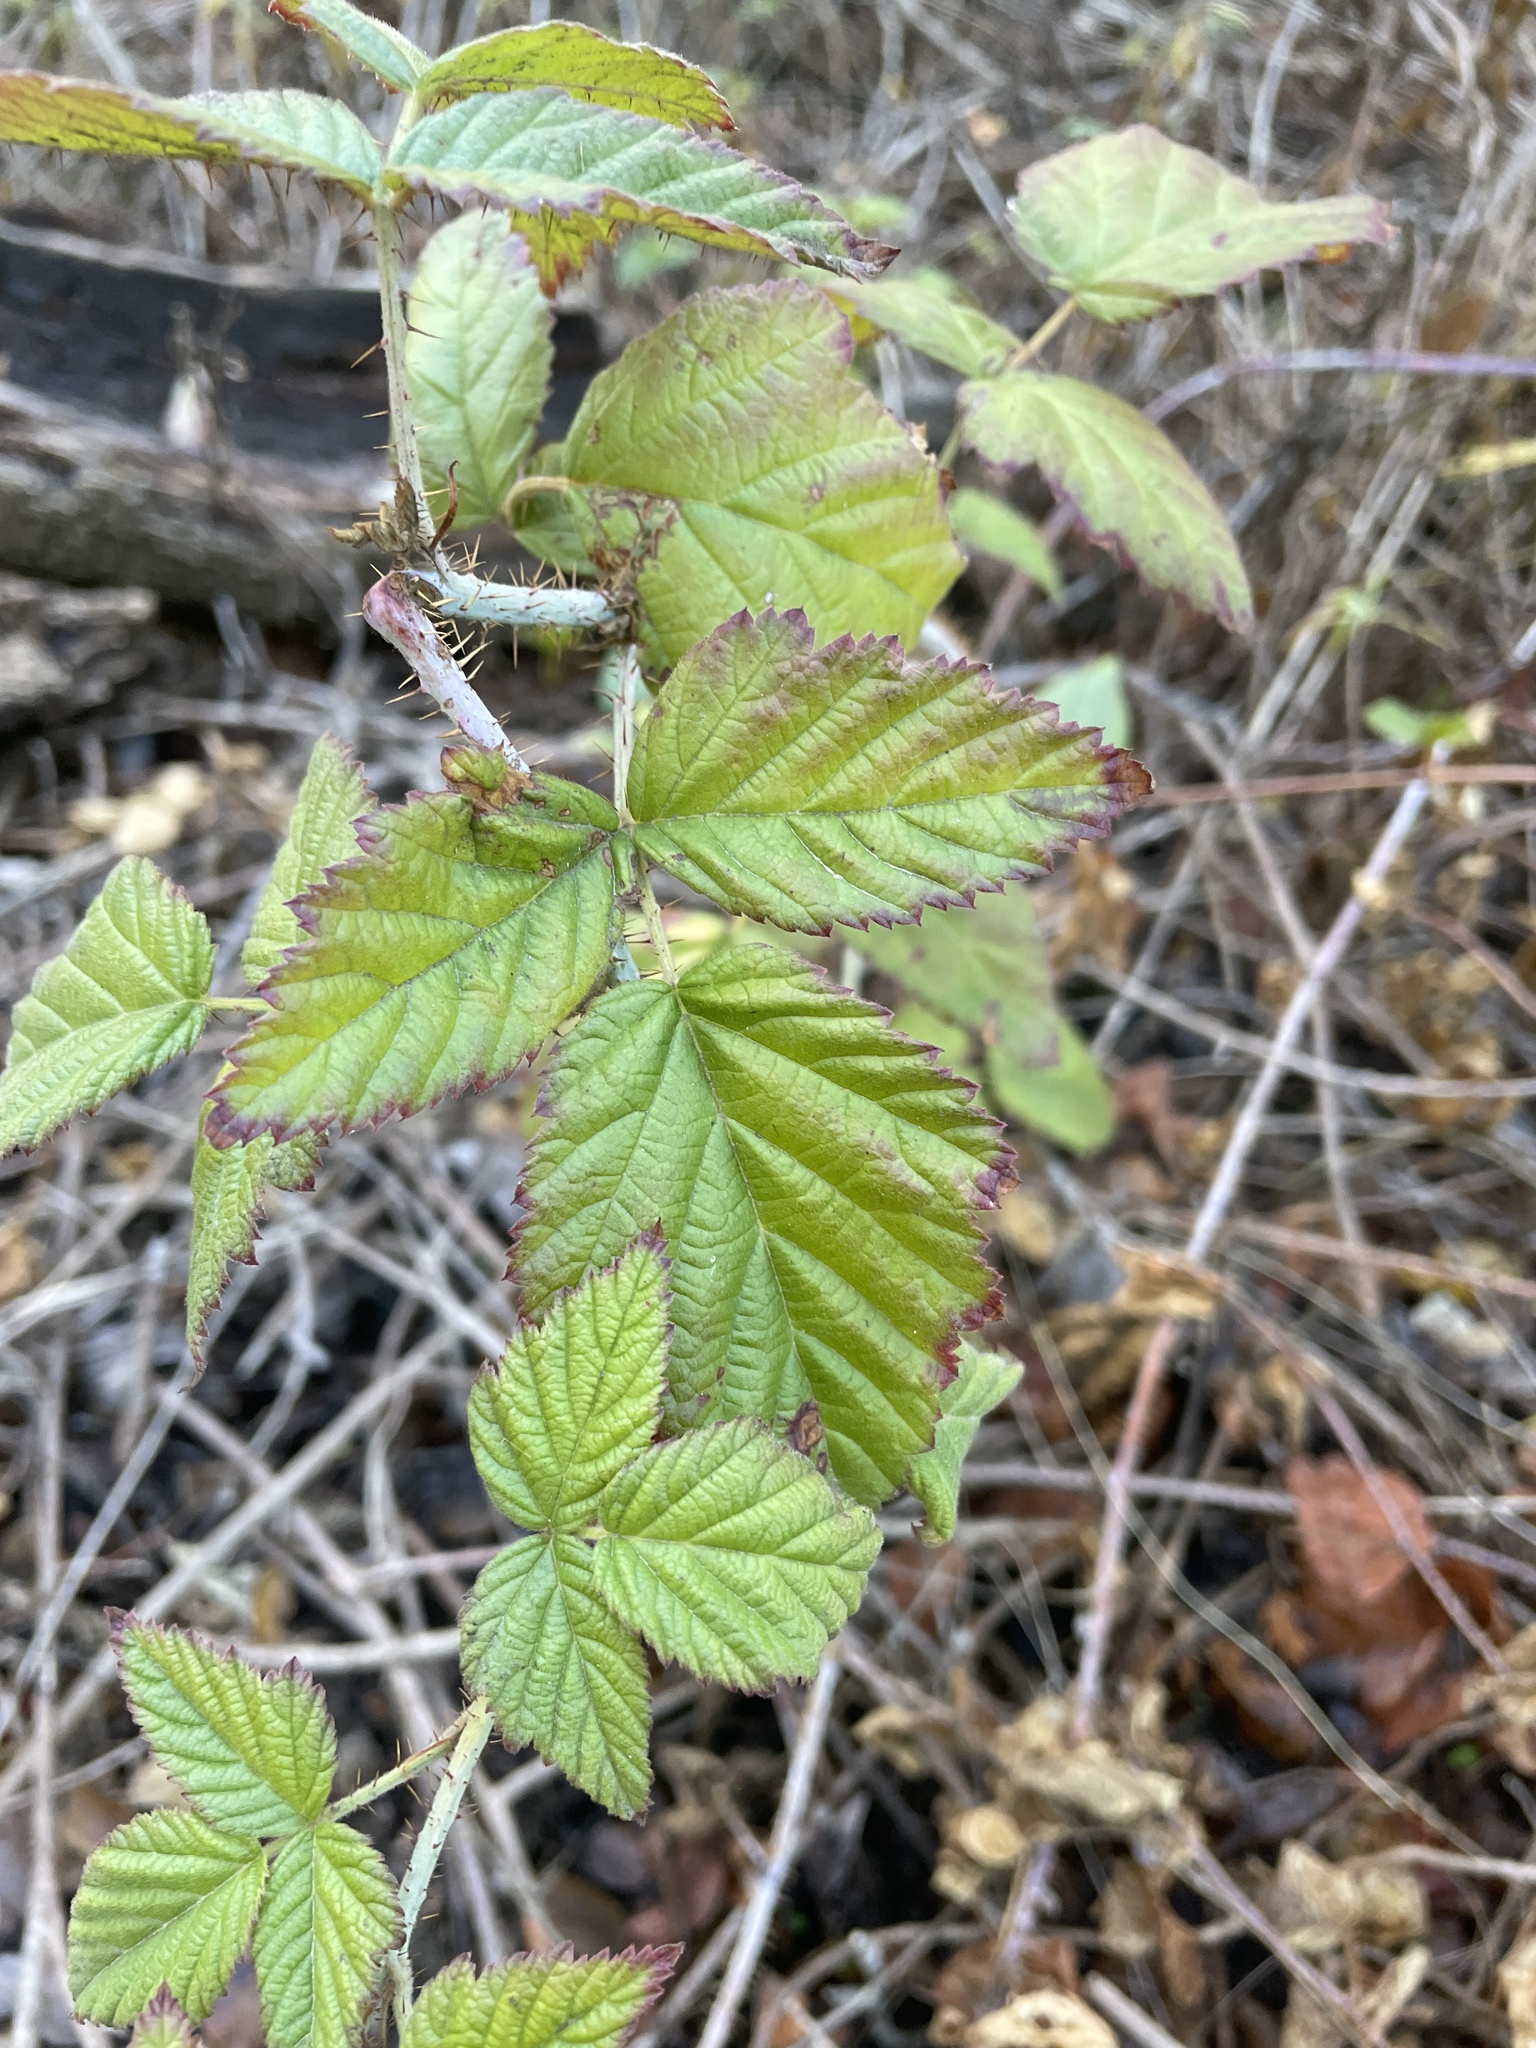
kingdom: Plantae
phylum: Tracheophyta
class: Magnoliopsida
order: Rosales
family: Rosaceae
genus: Rubus
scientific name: Rubus ursinus
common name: Pacific blackberry
